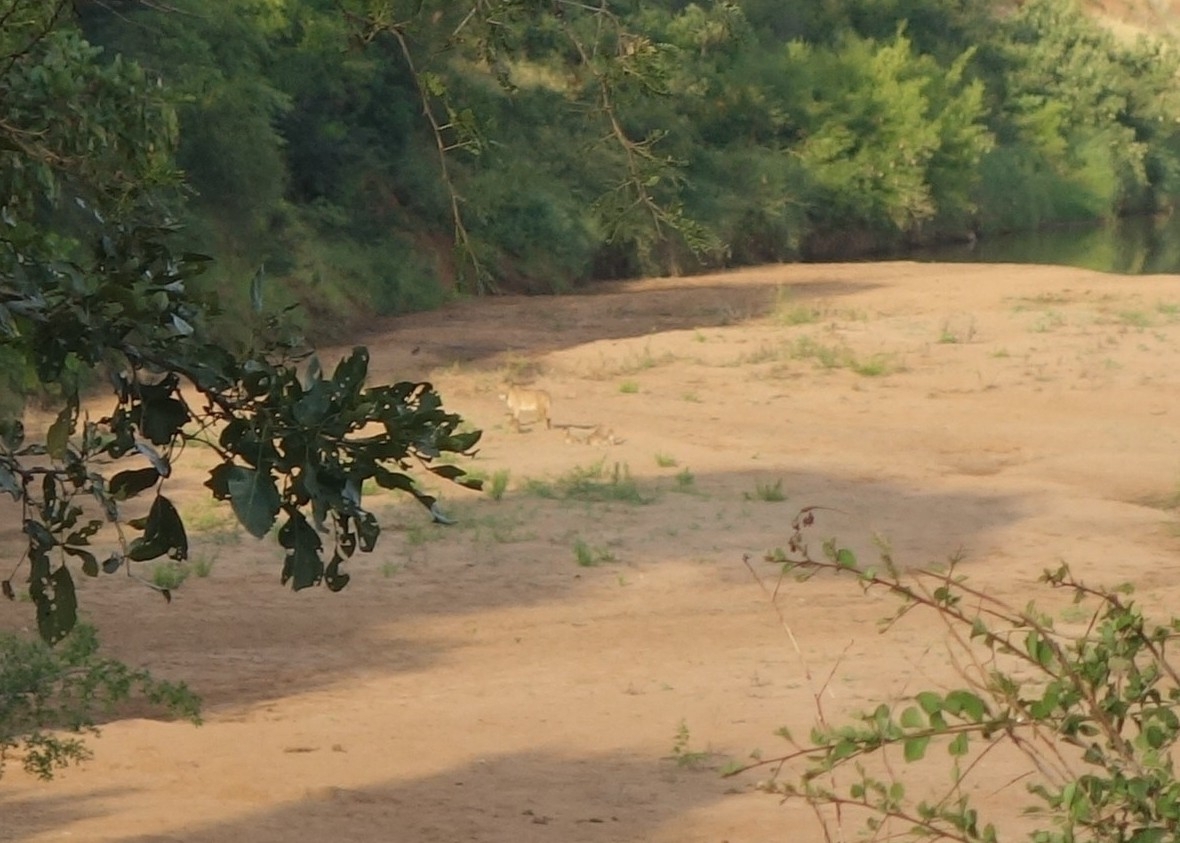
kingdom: Animalia
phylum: Chordata
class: Mammalia
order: Carnivora
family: Felidae
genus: Panthera
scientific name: Panthera leo
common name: Lion
